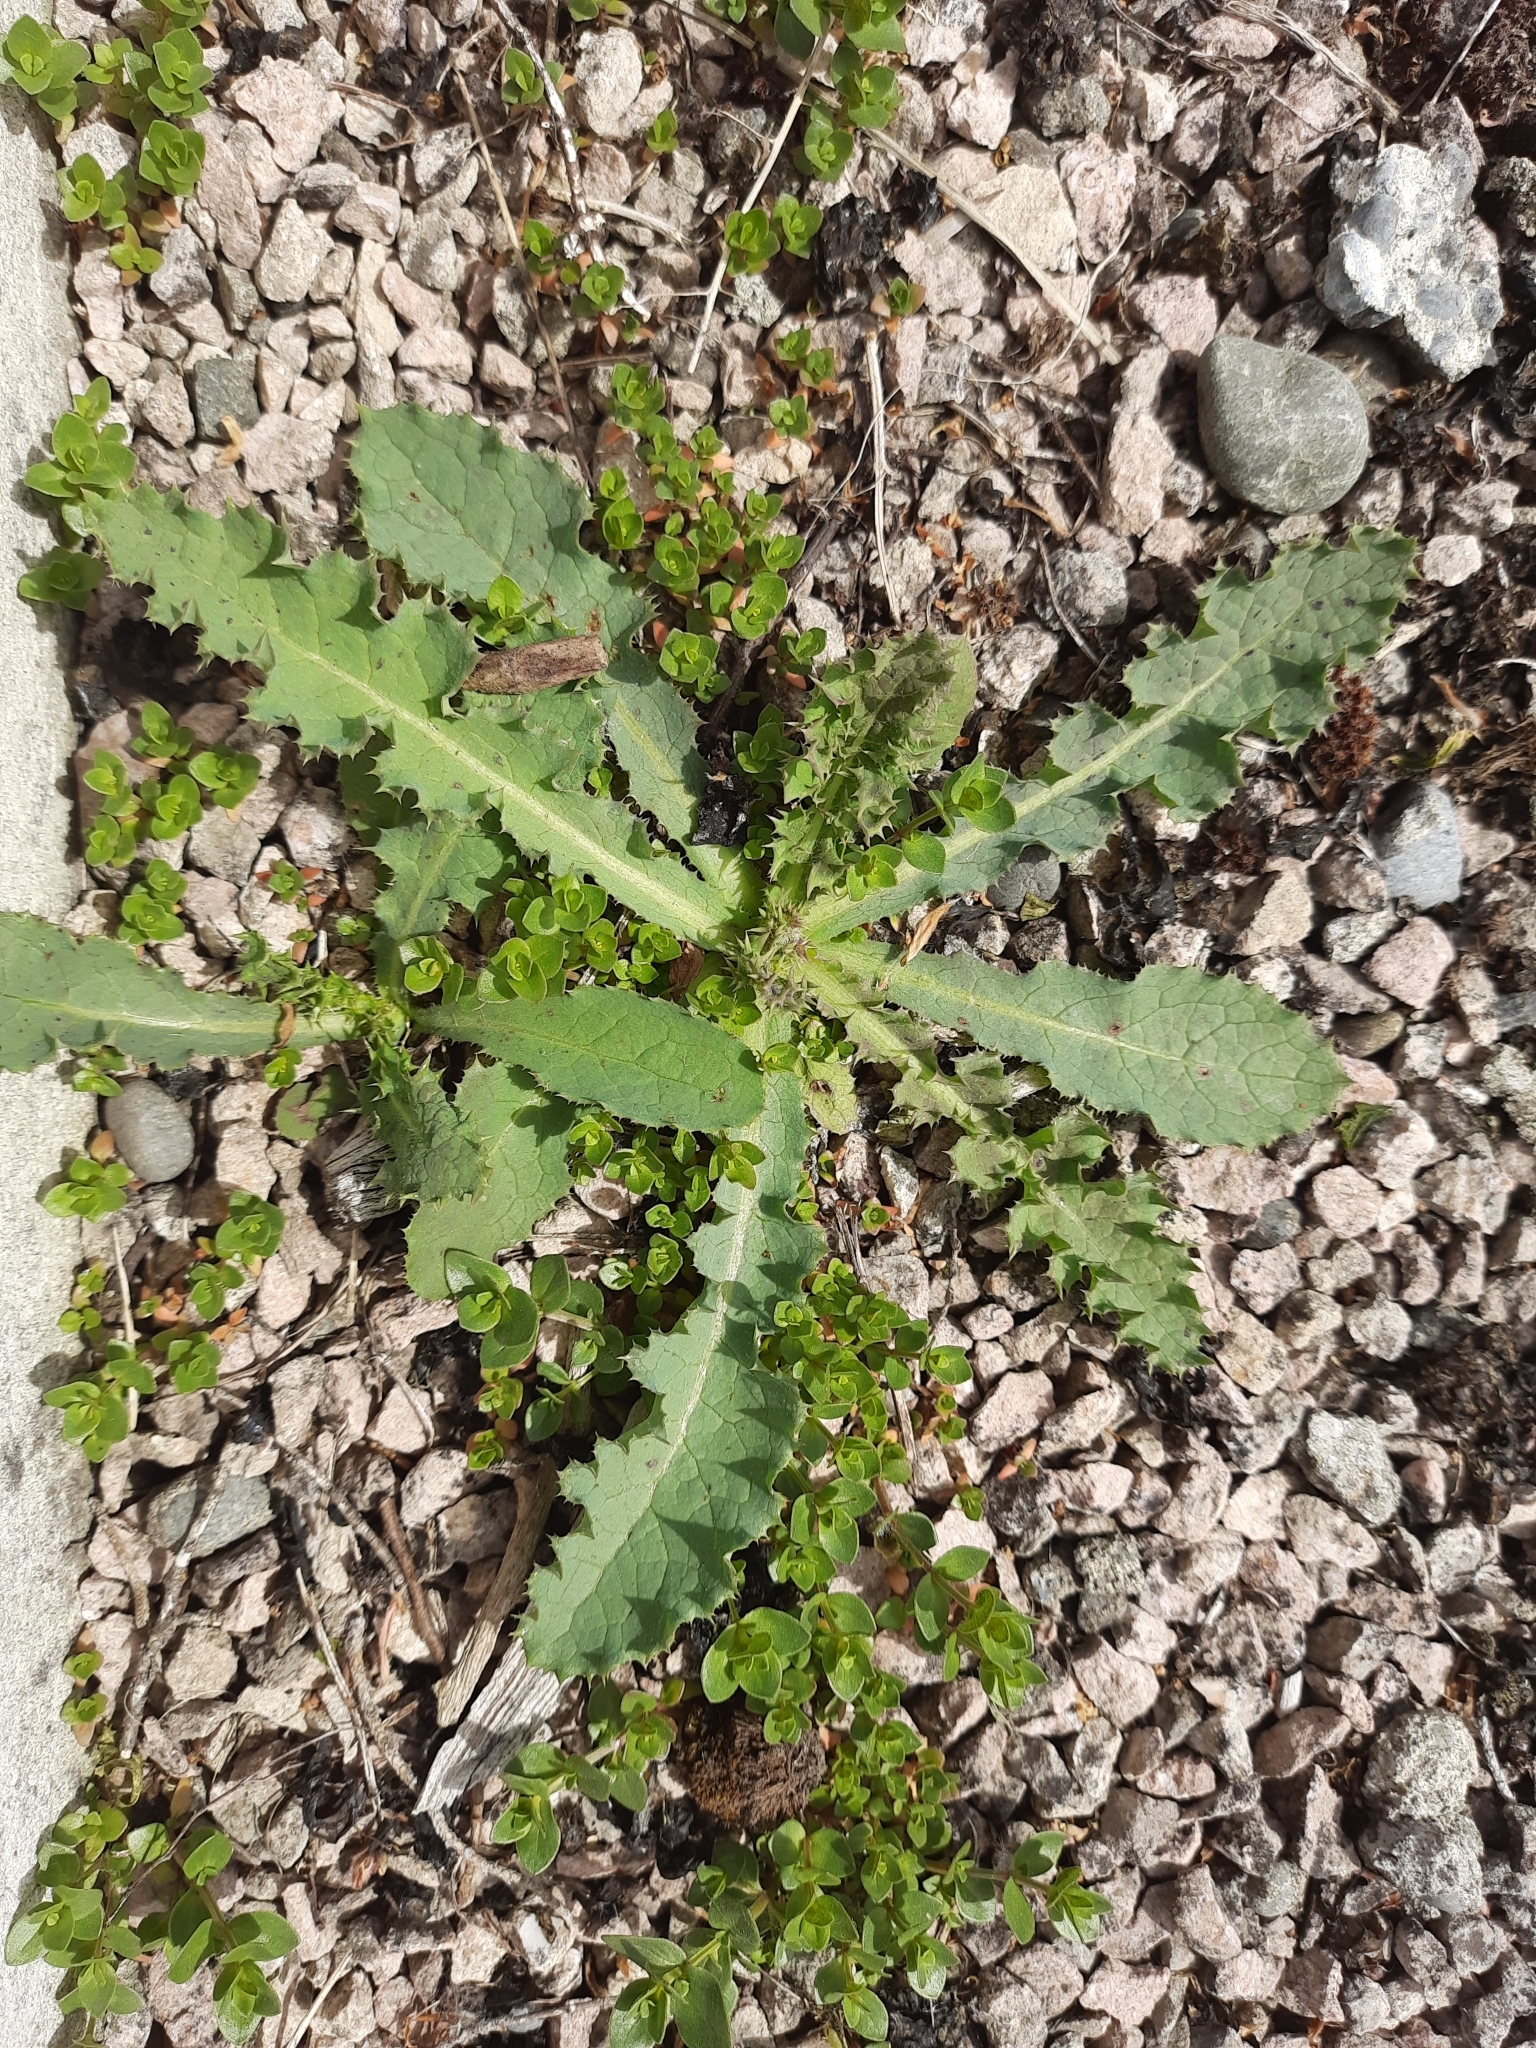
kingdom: Plantae
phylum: Tracheophyta
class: Magnoliopsida
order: Asterales
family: Asteraceae
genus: Sonchus
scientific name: Sonchus kirkii
